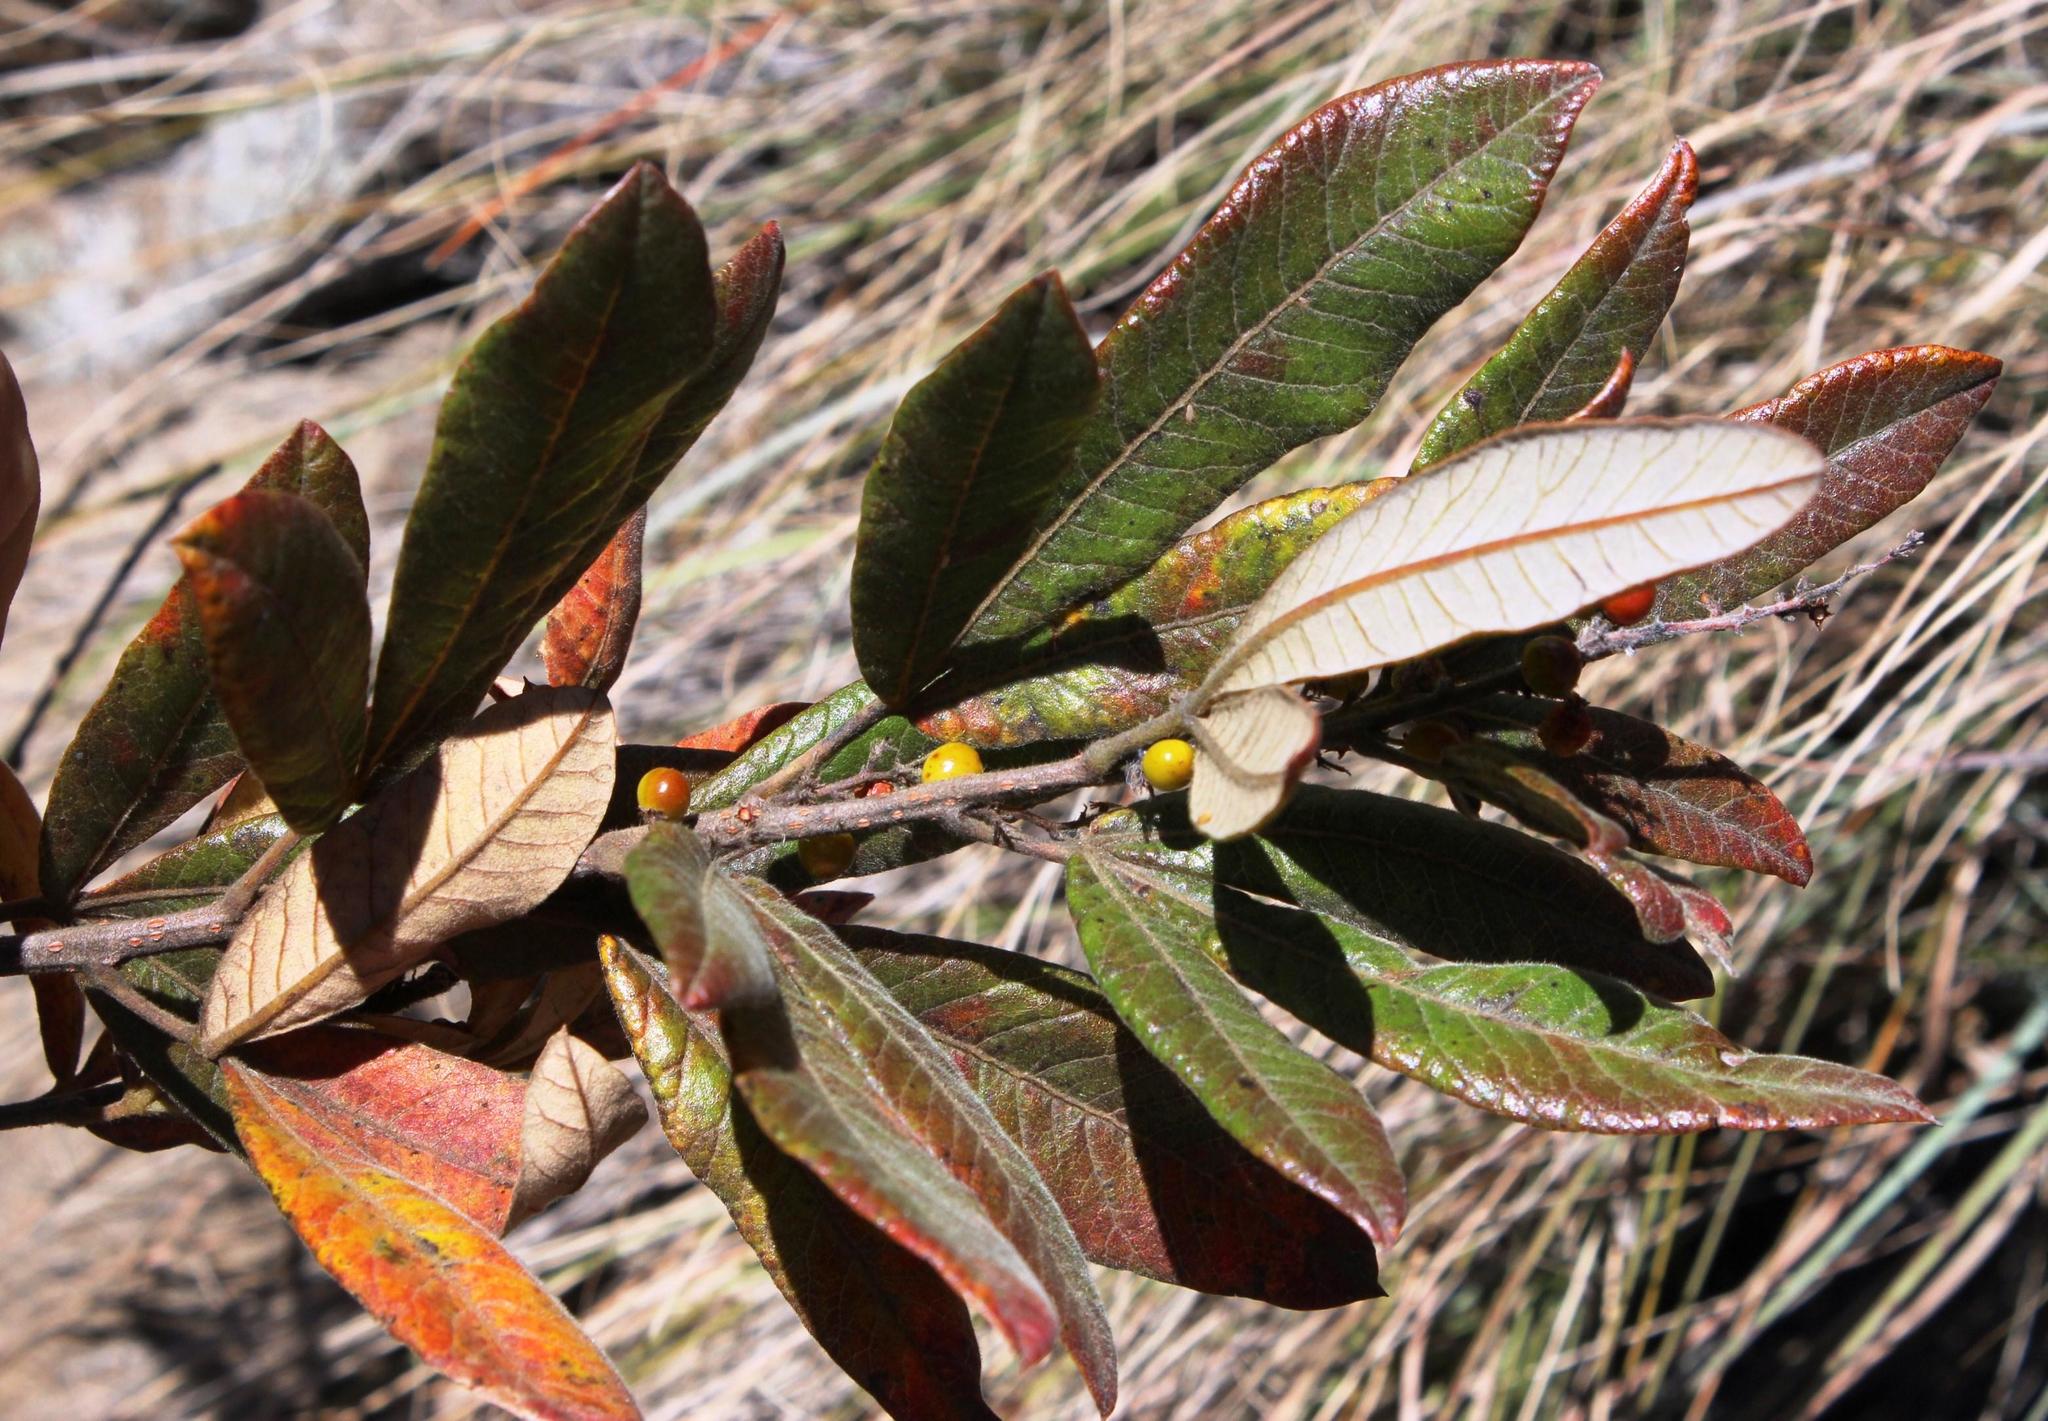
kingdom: Plantae
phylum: Tracheophyta
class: Magnoliopsida
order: Sapindales
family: Anacardiaceae
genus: Searsia
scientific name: Searsia discolor
